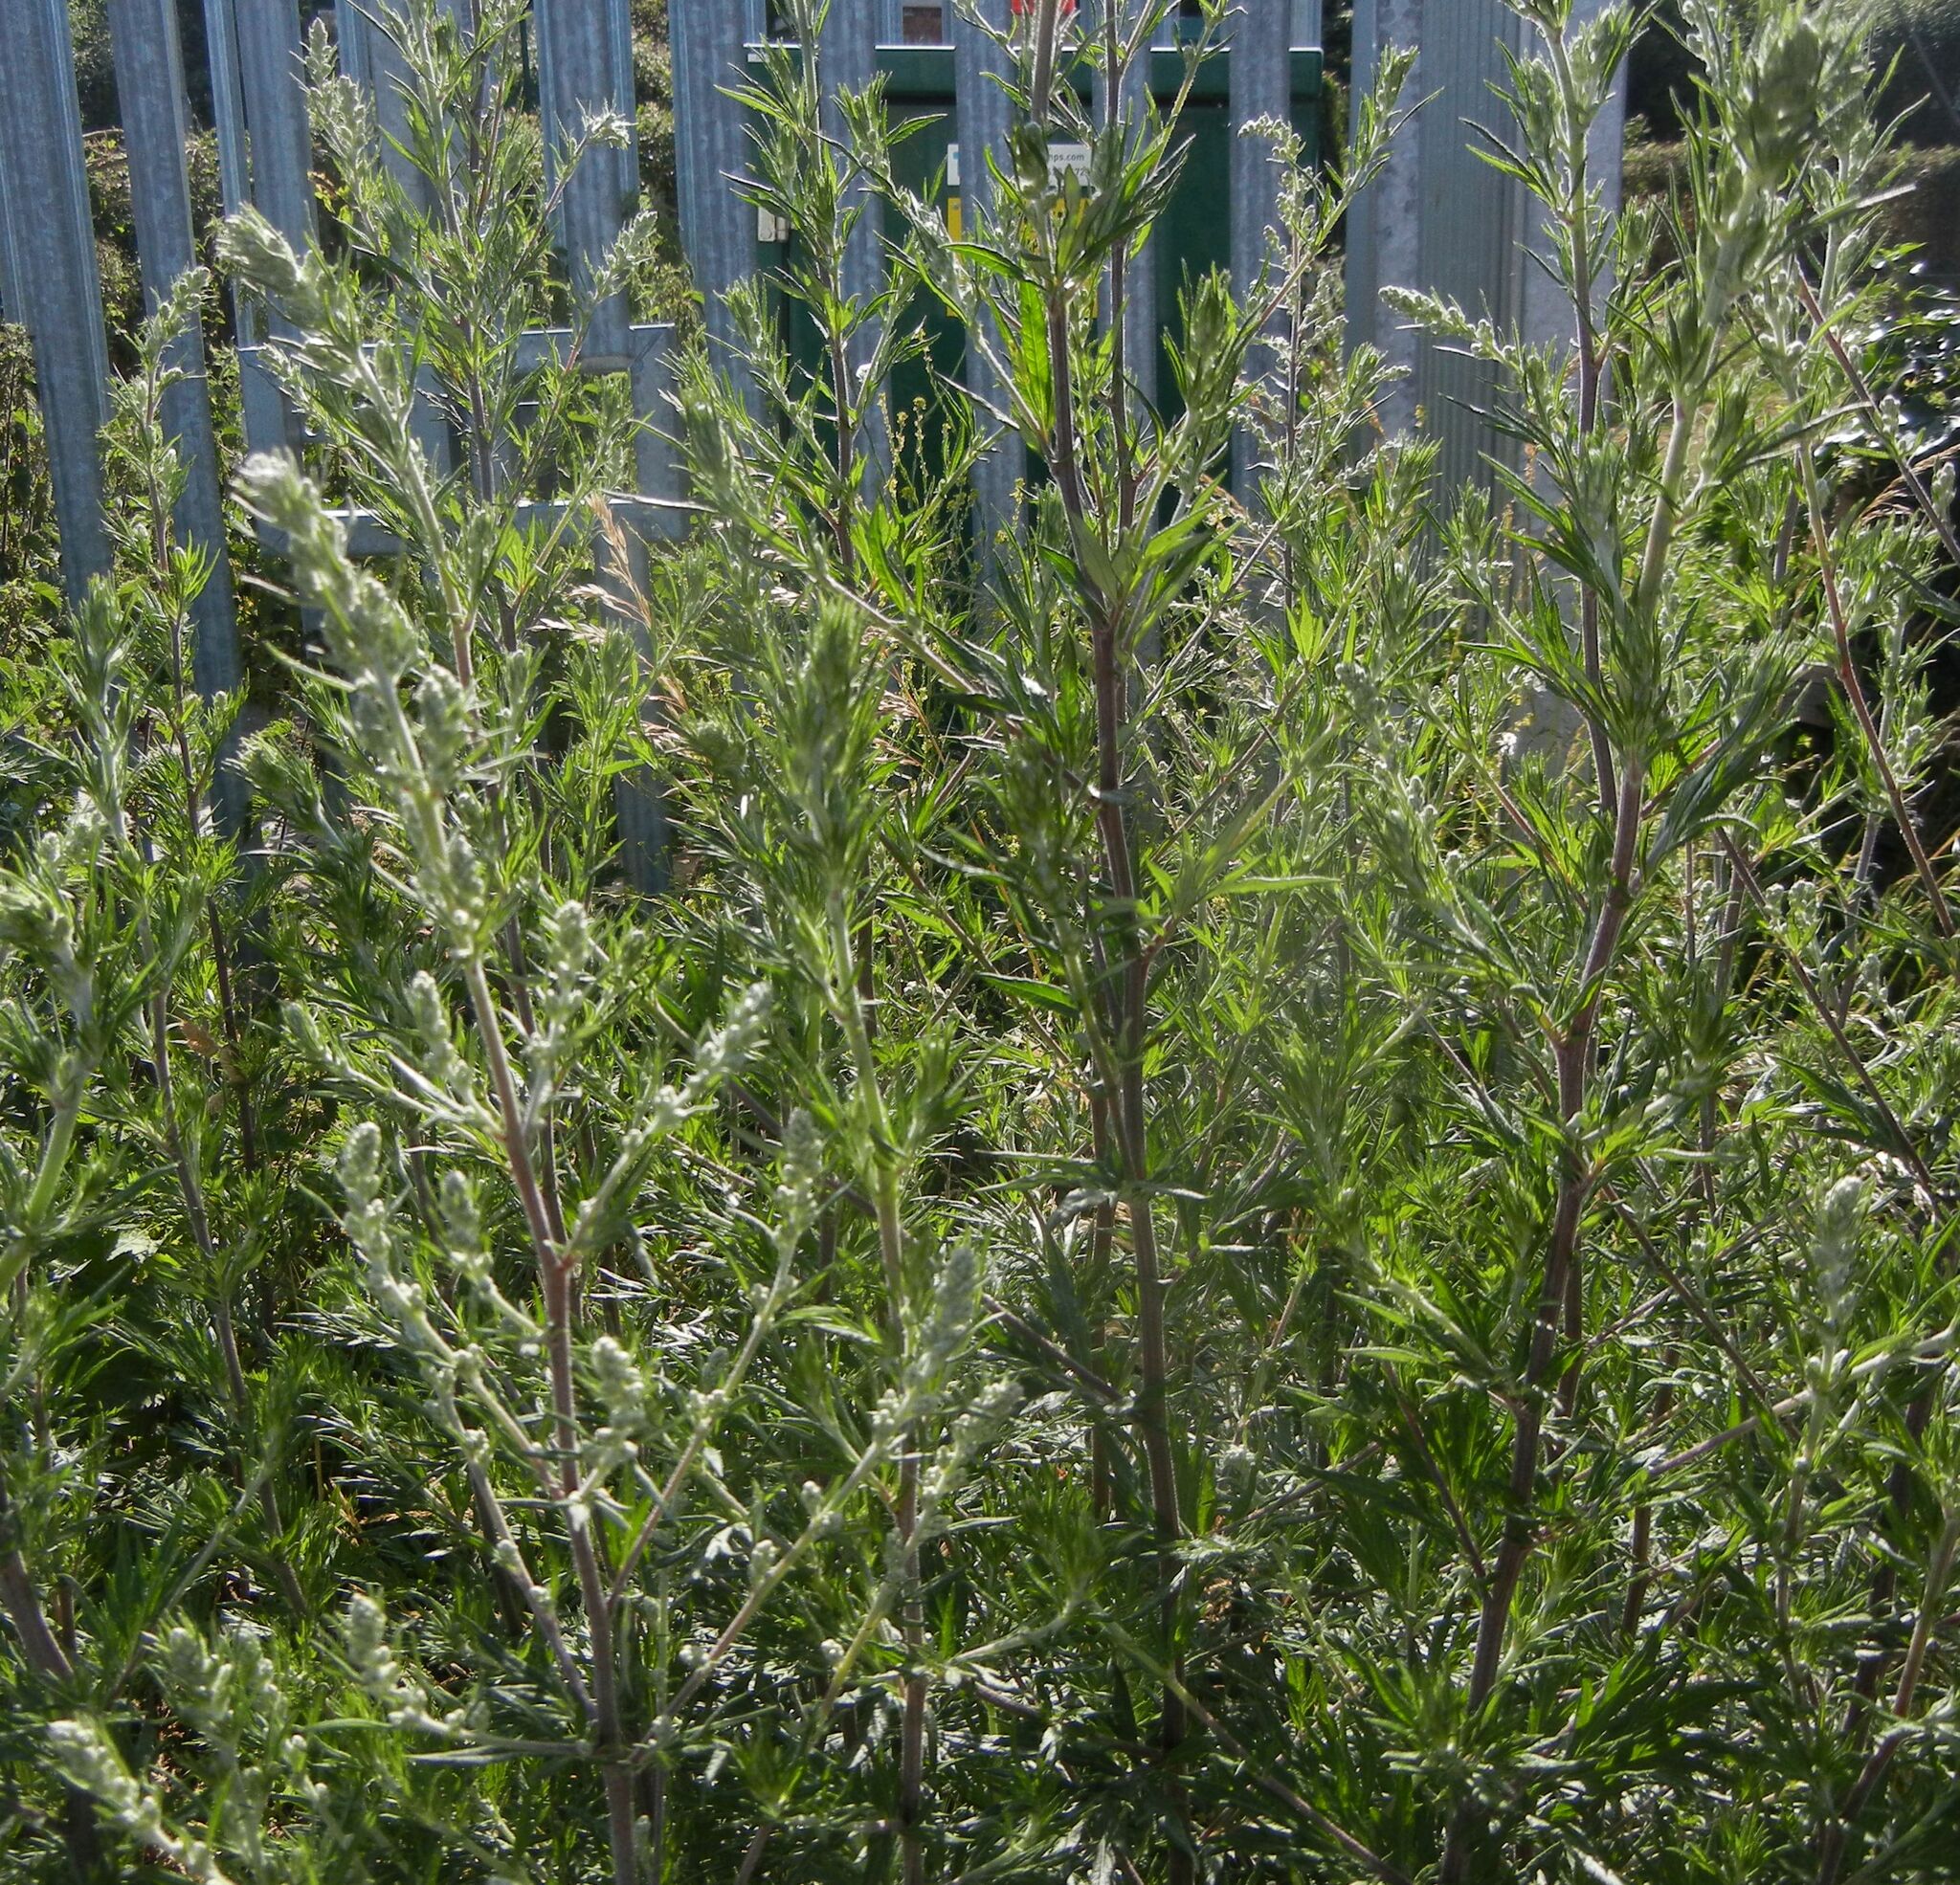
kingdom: Plantae
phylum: Tracheophyta
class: Magnoliopsida
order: Asterales
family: Asteraceae
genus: Artemisia
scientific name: Artemisia vulgaris
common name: Mugwort
